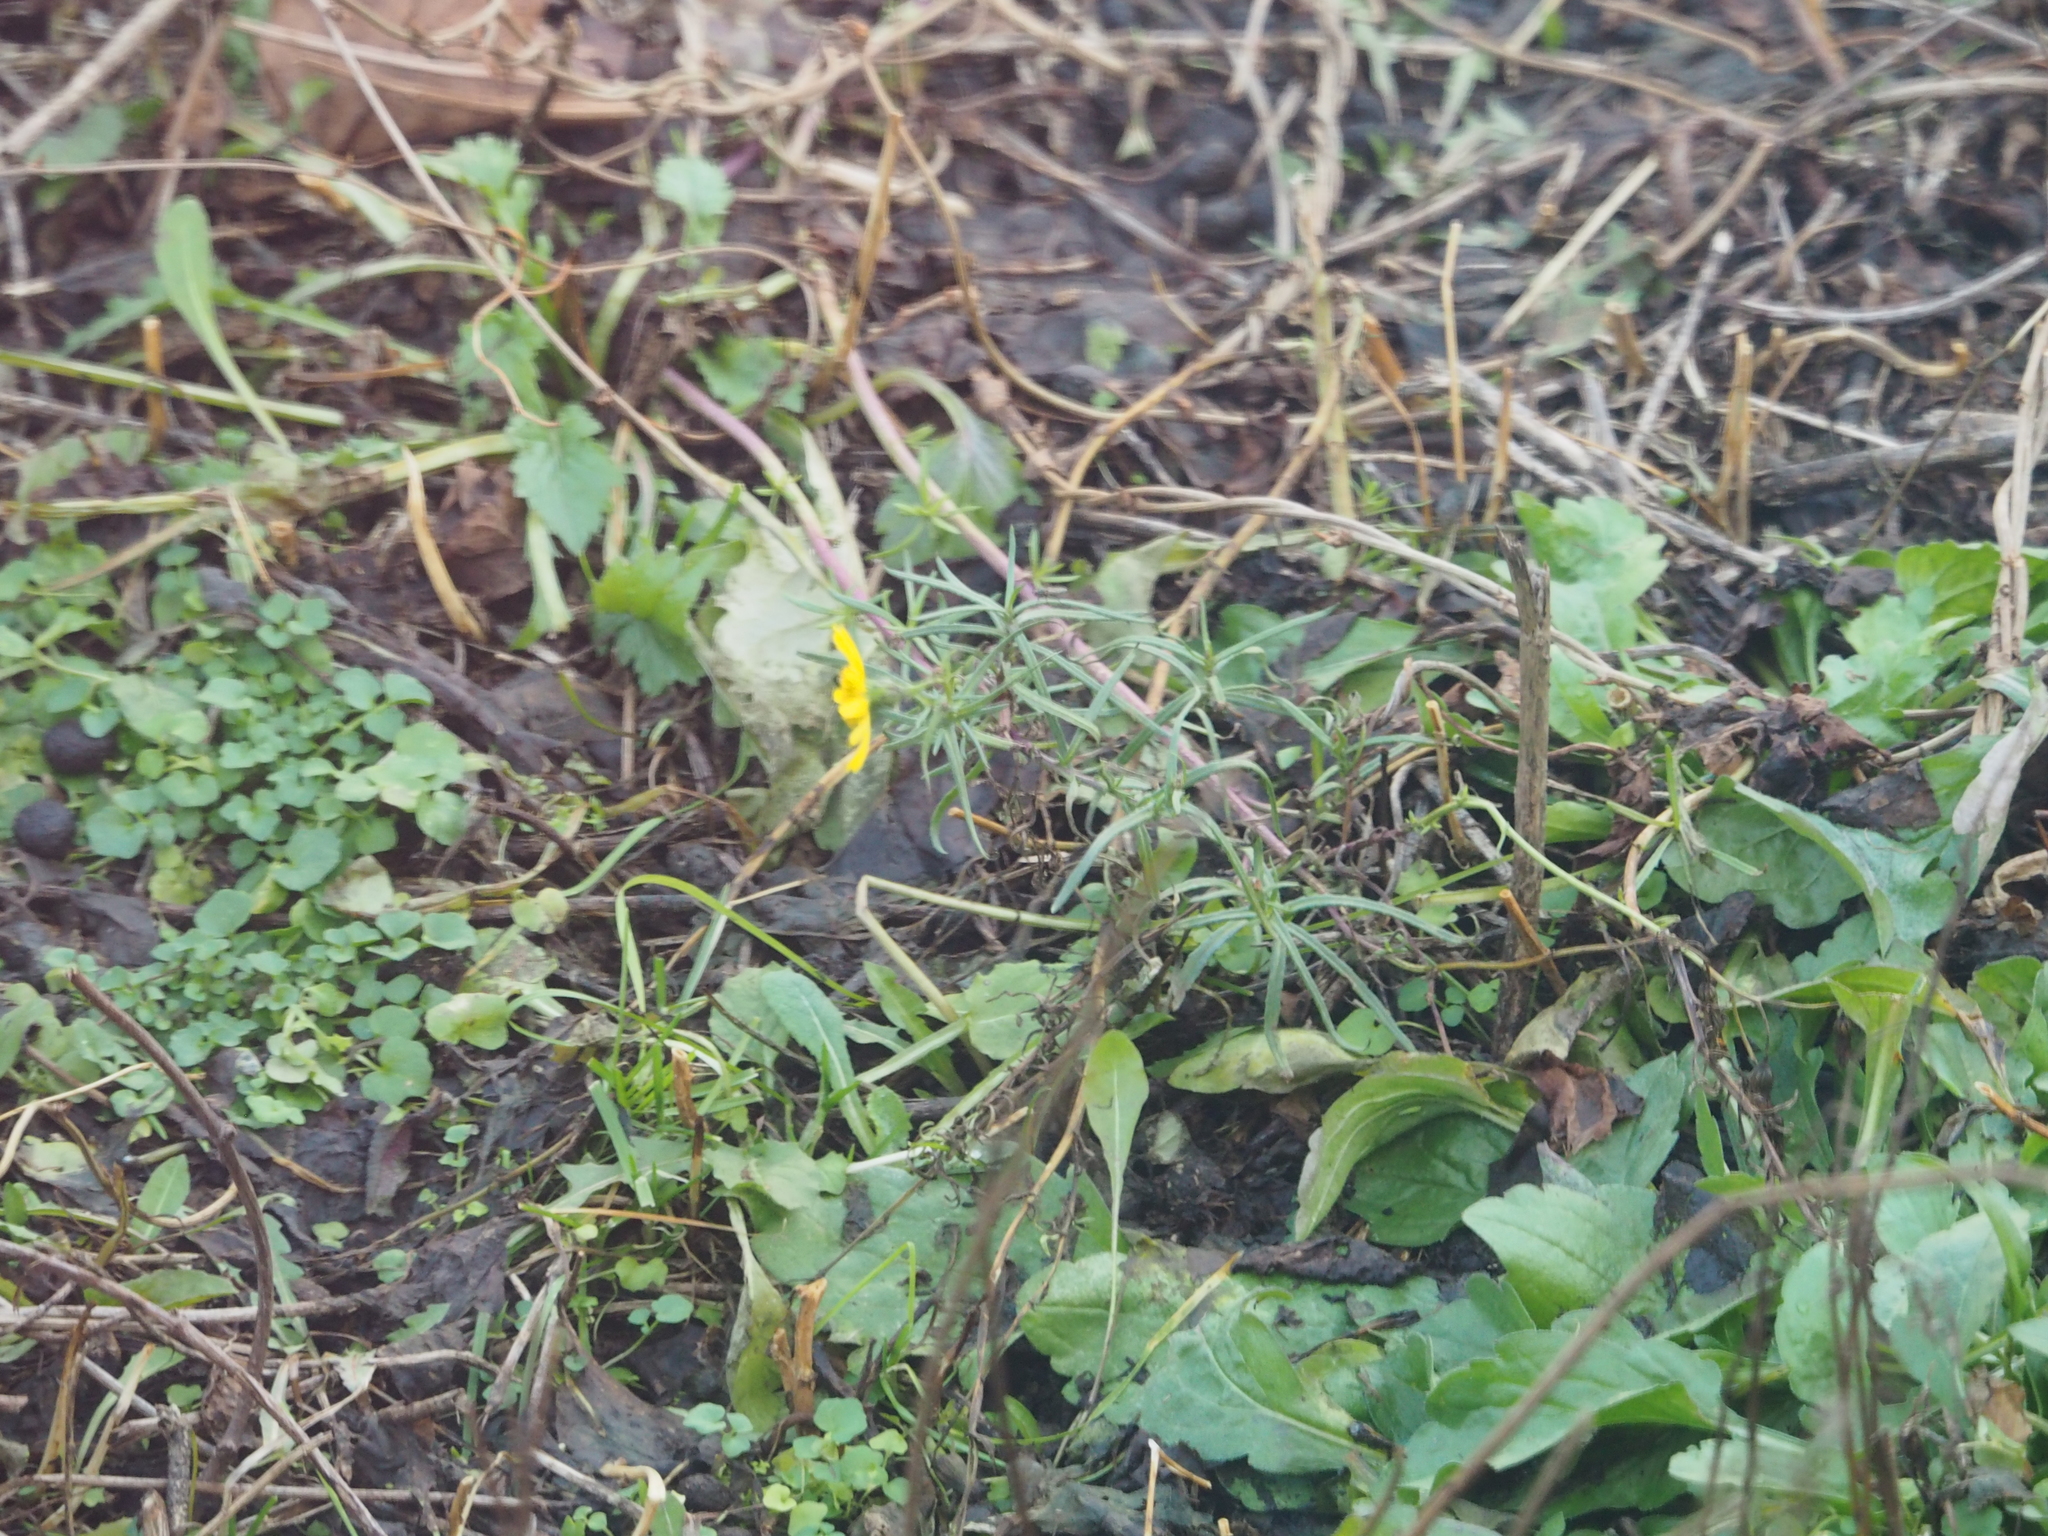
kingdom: Plantae
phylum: Tracheophyta
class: Magnoliopsida
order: Asterales
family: Asteraceae
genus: Senecio
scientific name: Senecio inaequidens
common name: Narrow-leaved ragwort
